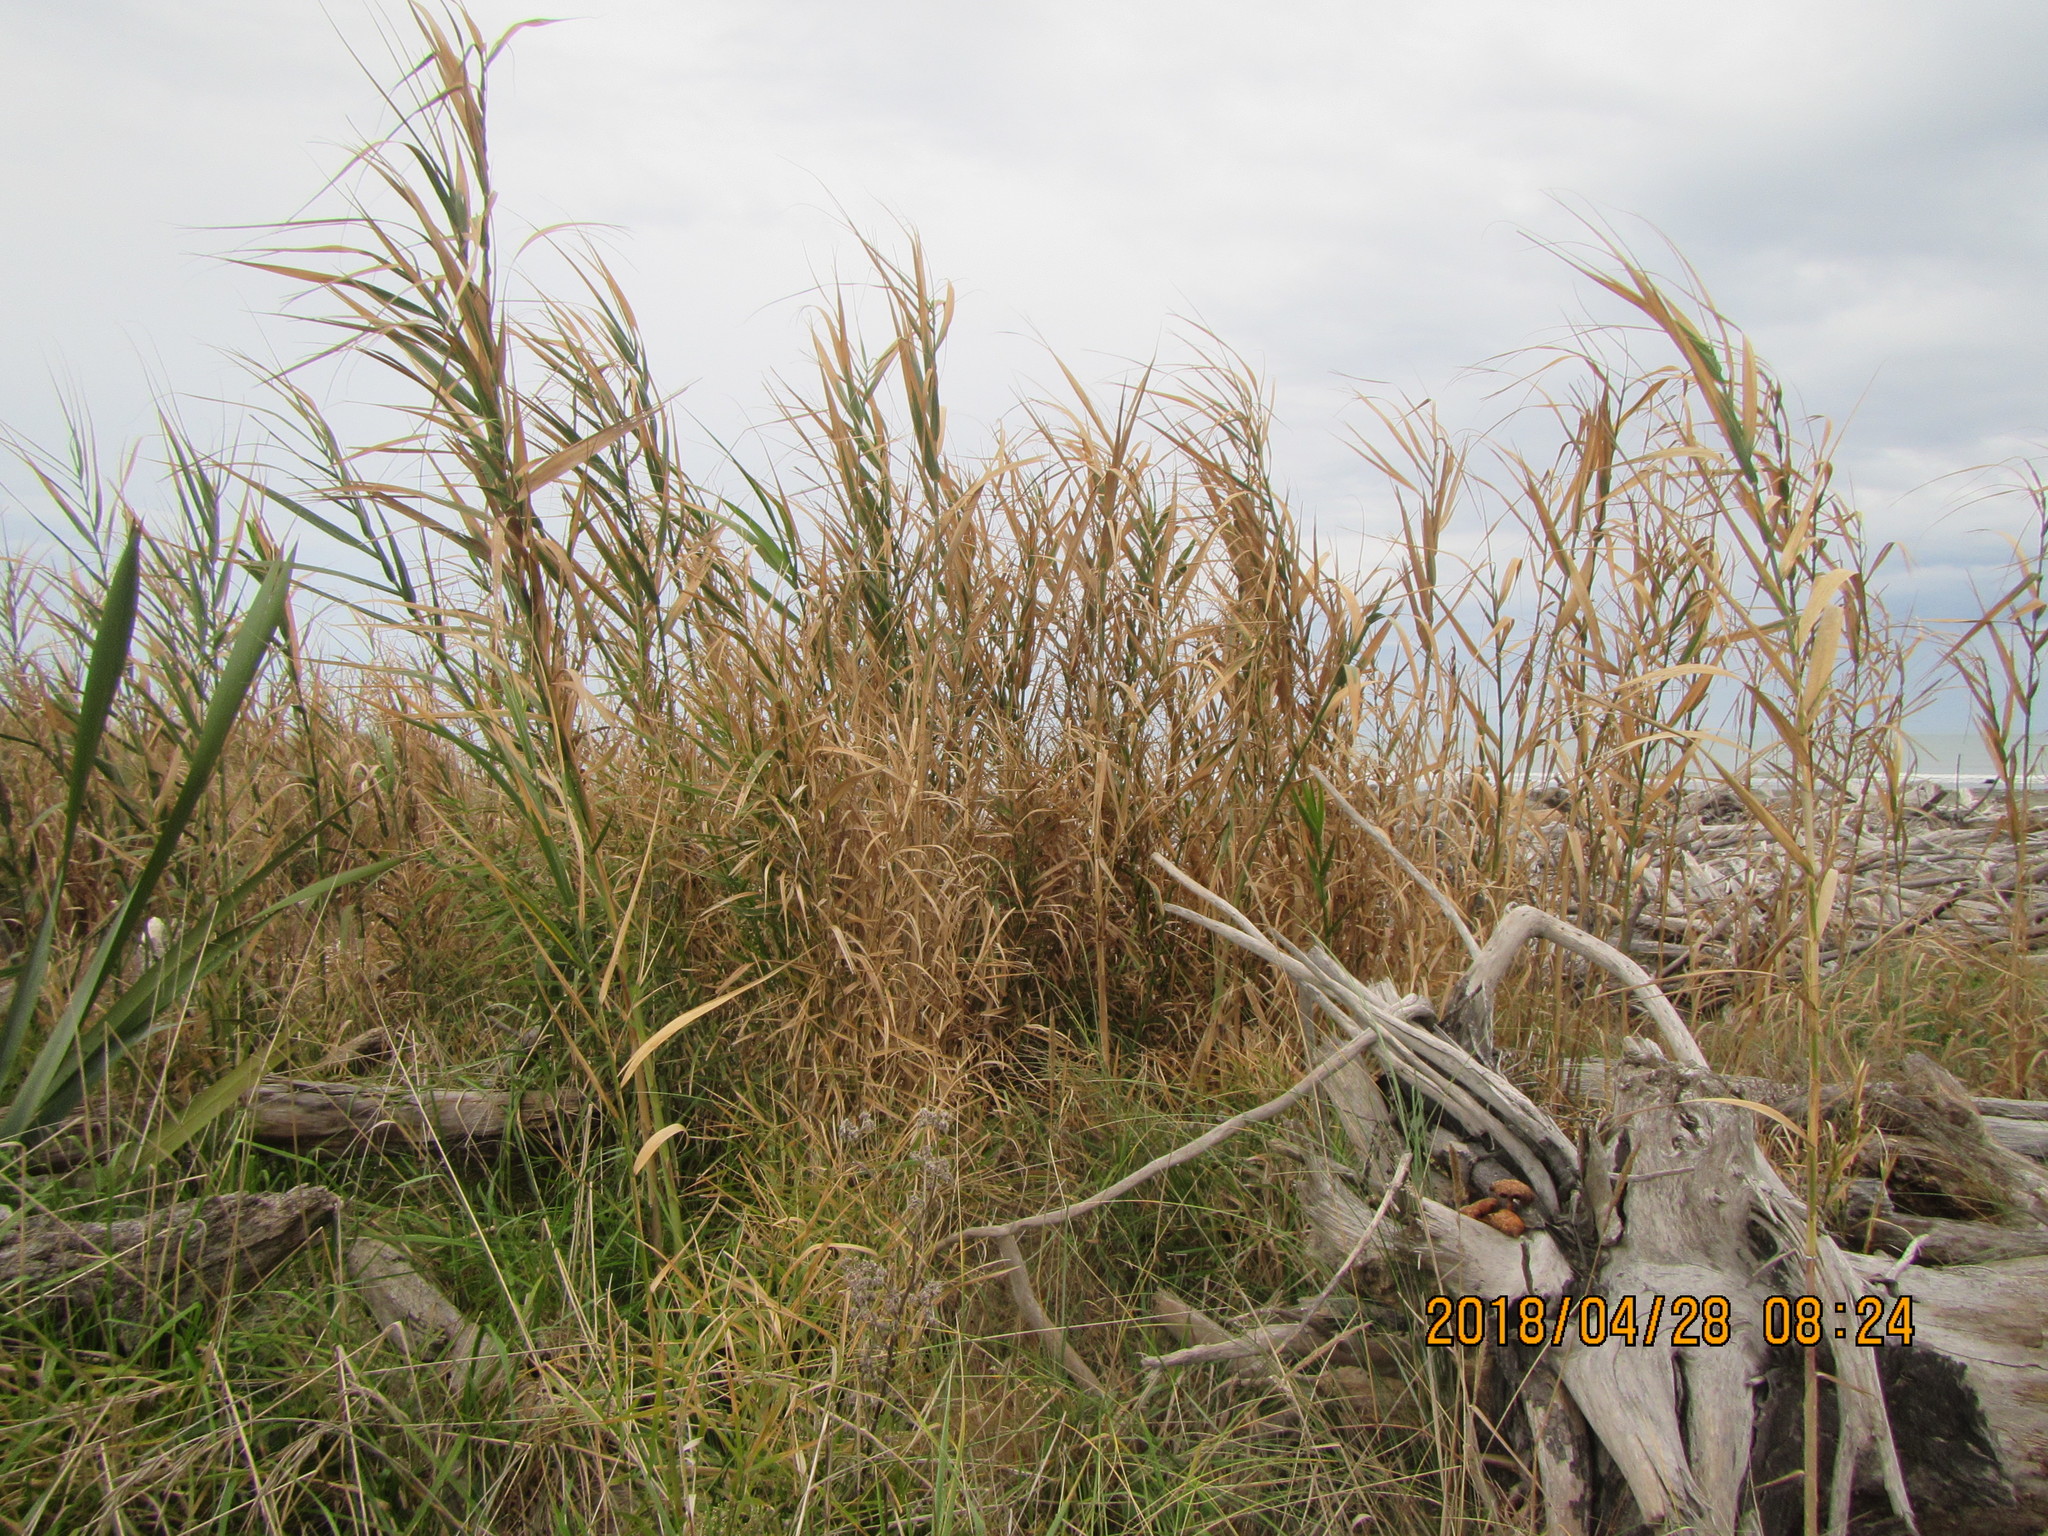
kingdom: Plantae
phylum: Tracheophyta
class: Liliopsida
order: Poales
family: Poaceae
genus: Arundo
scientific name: Arundo donax
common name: Giant reed
